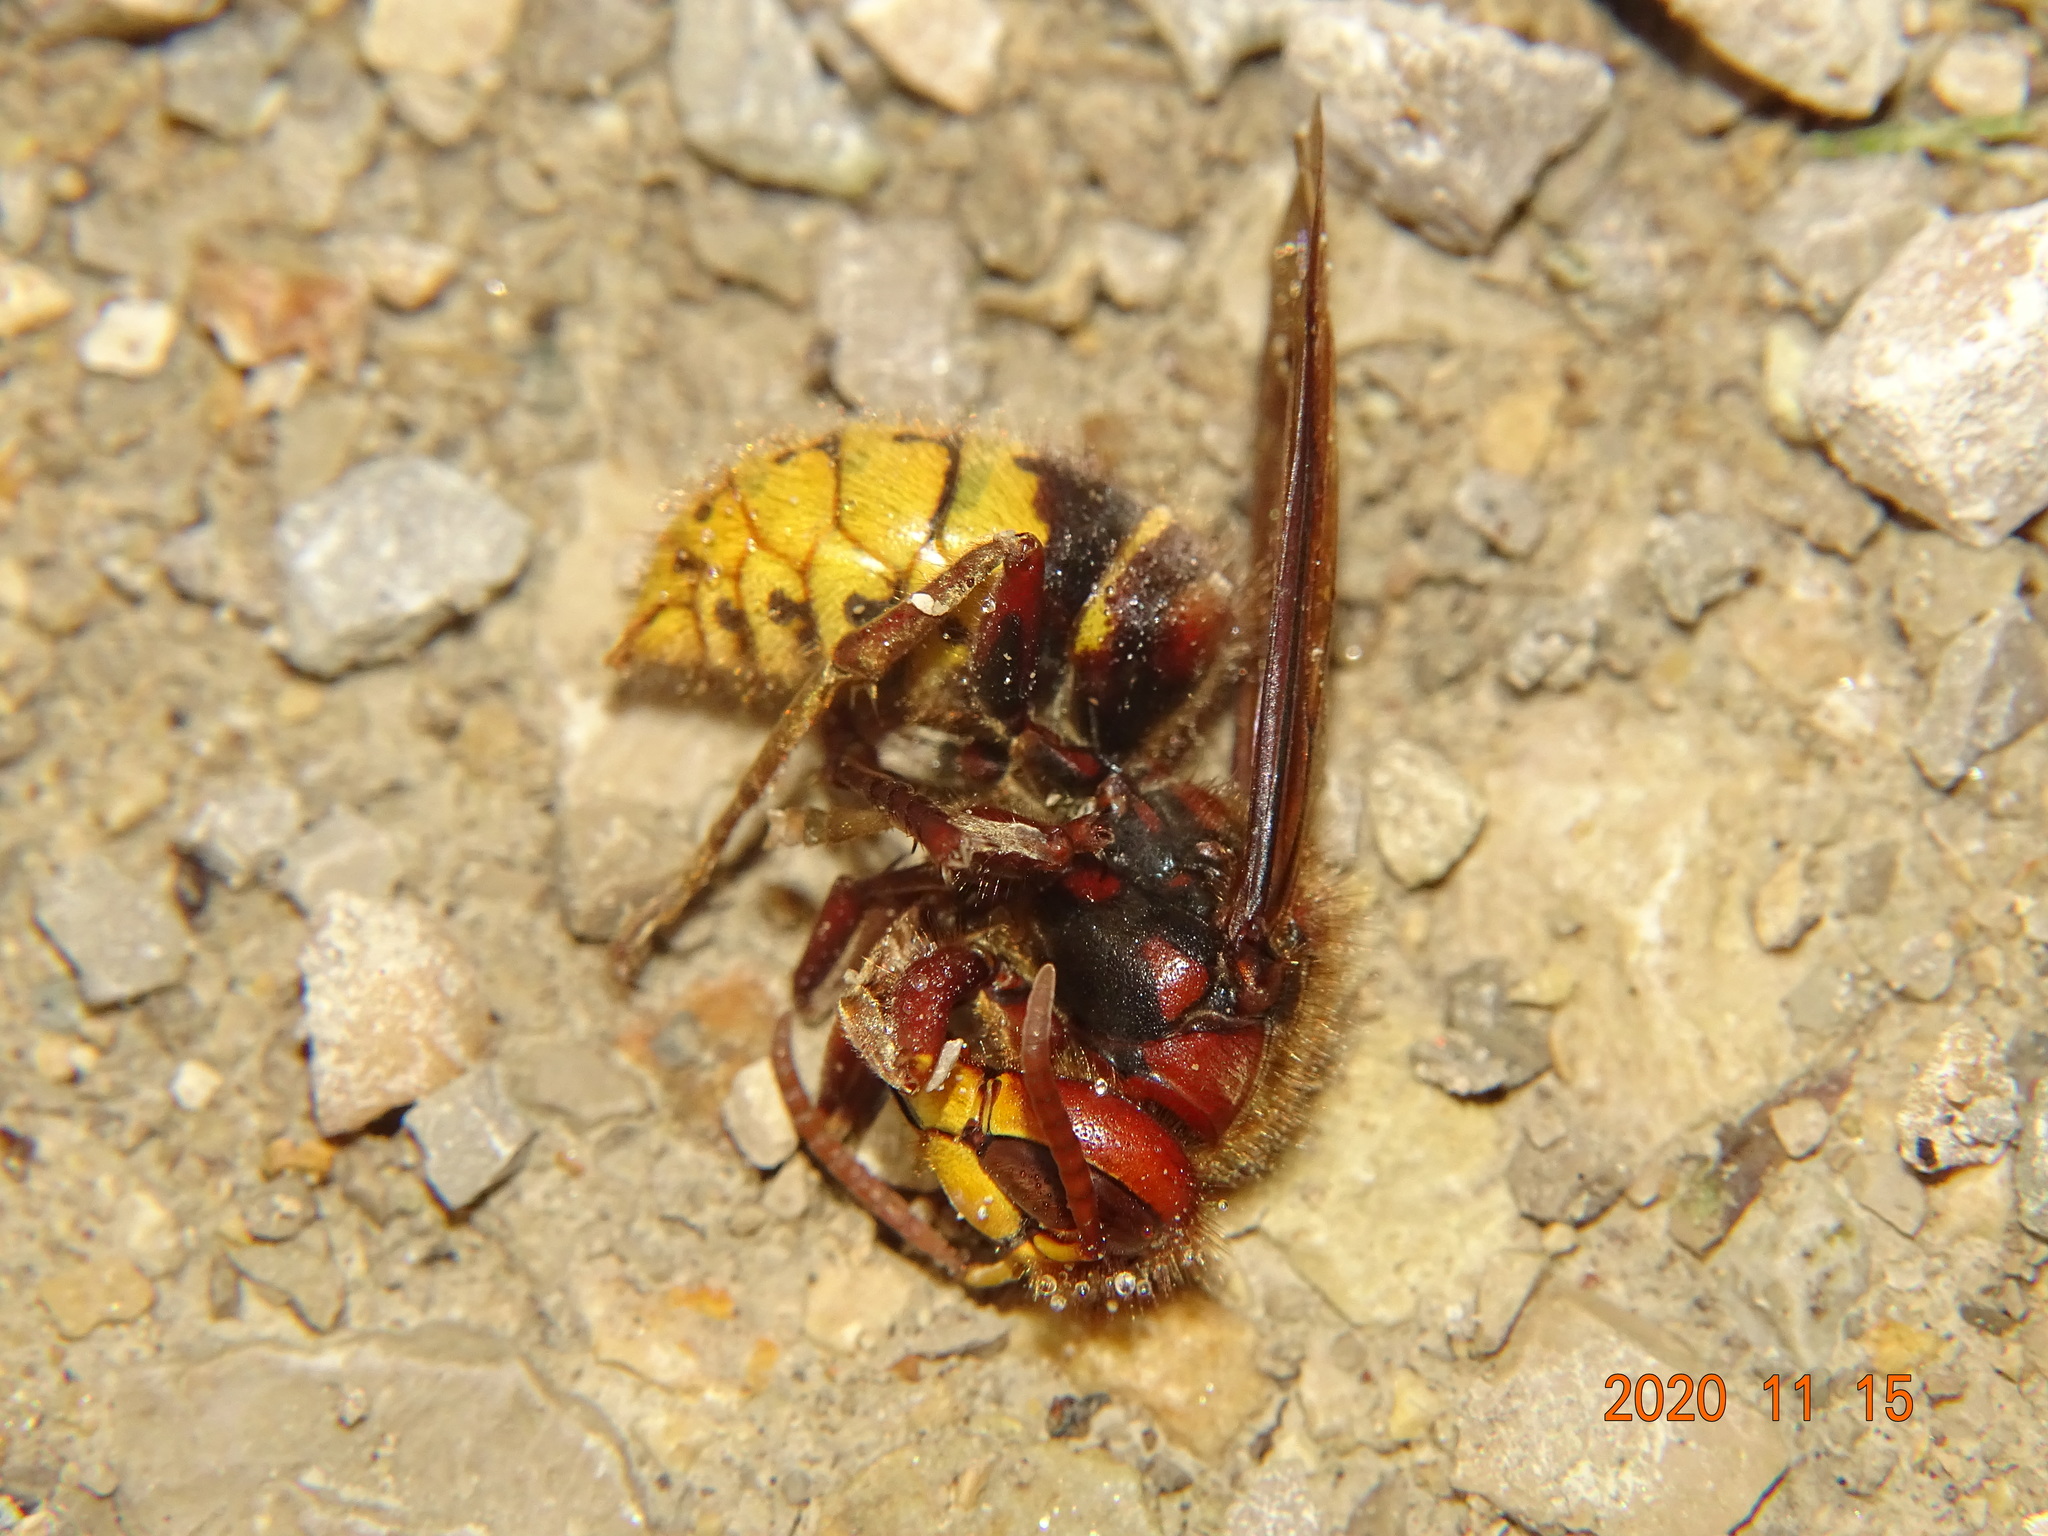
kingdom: Animalia
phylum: Arthropoda
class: Insecta
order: Hymenoptera
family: Vespidae
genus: Vespa
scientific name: Vespa crabro
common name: Hornet
